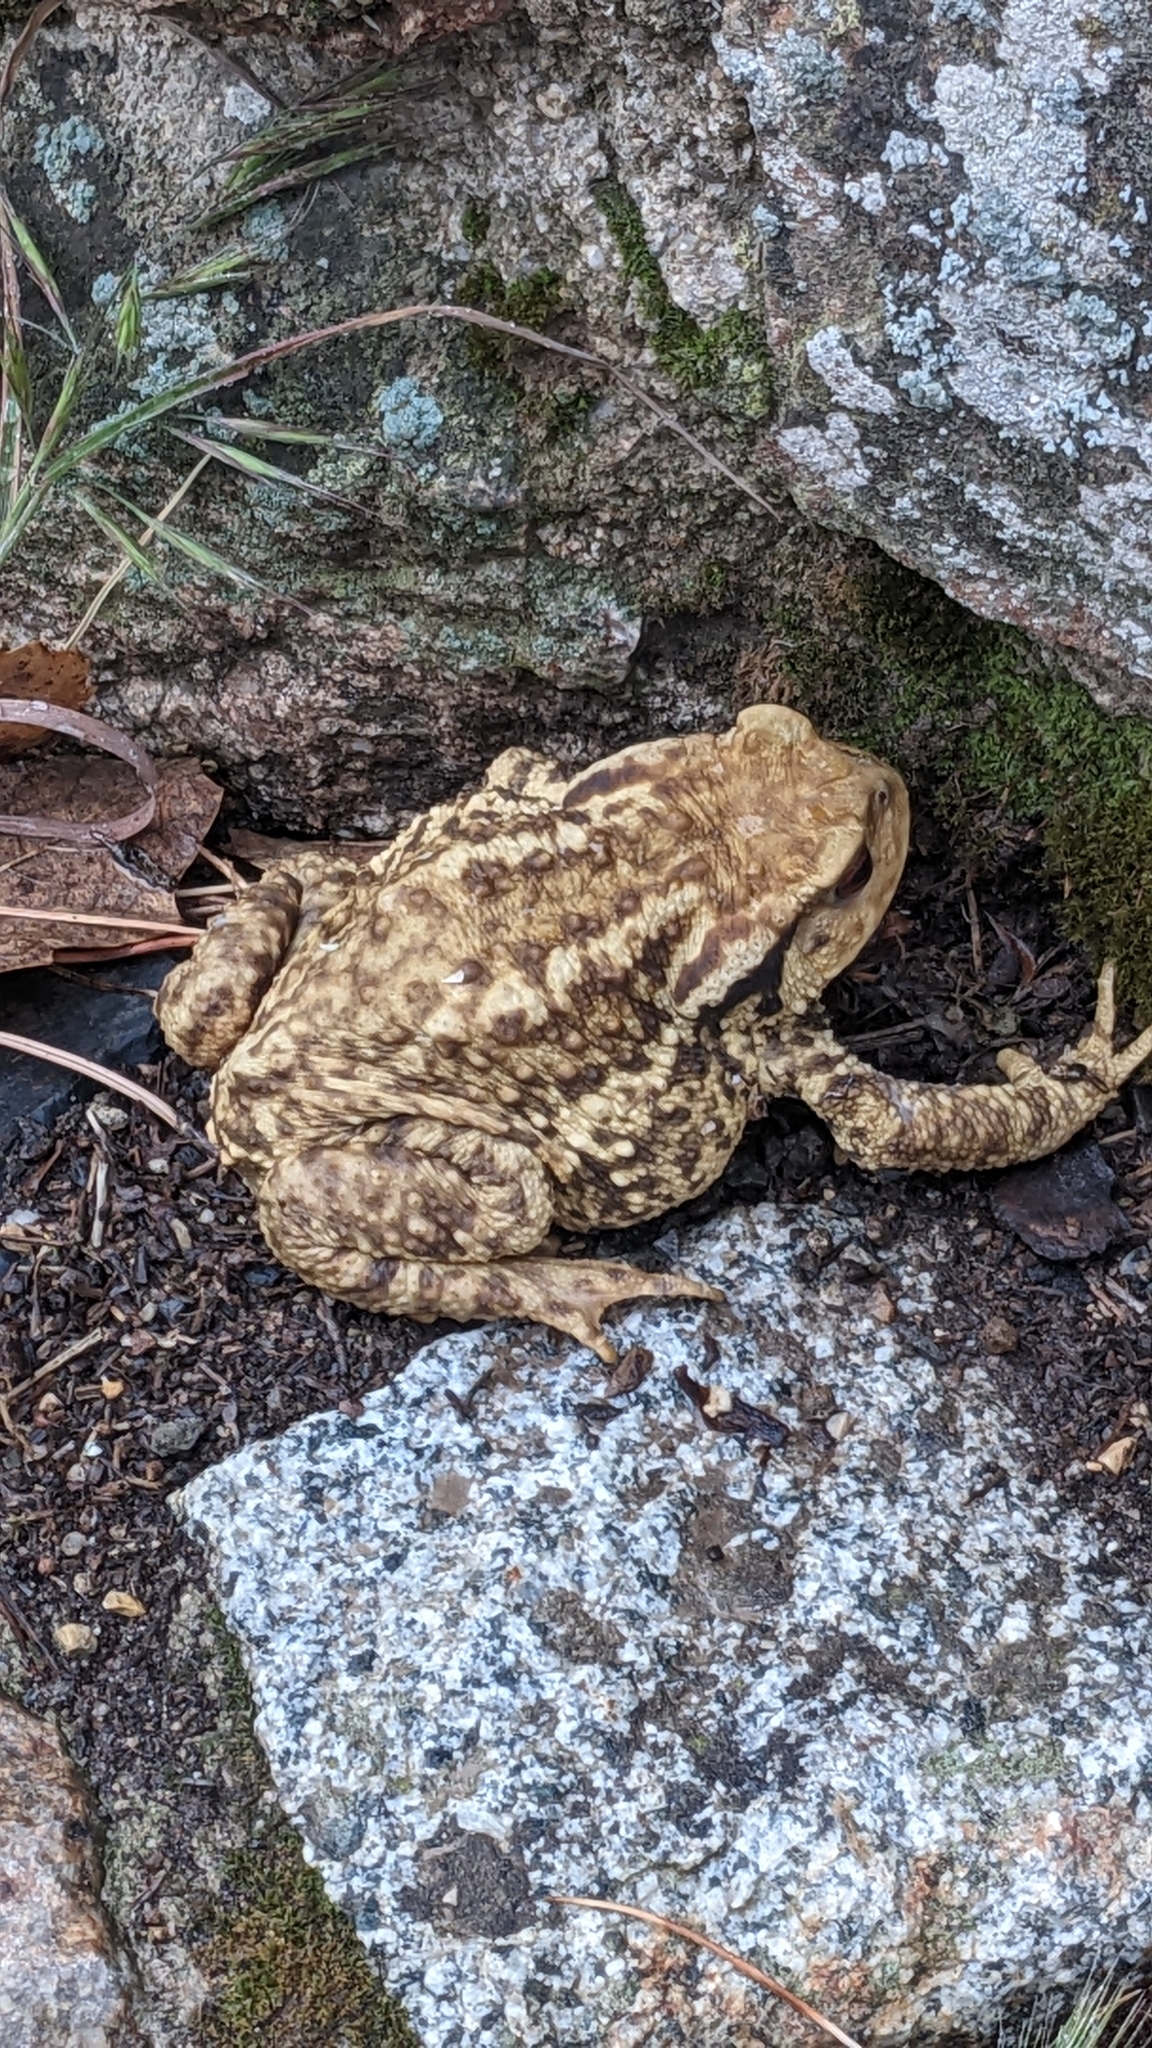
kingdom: Animalia
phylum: Chordata
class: Amphibia
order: Anura
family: Bufonidae
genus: Bufo
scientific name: Bufo spinosus
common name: Western common toad
